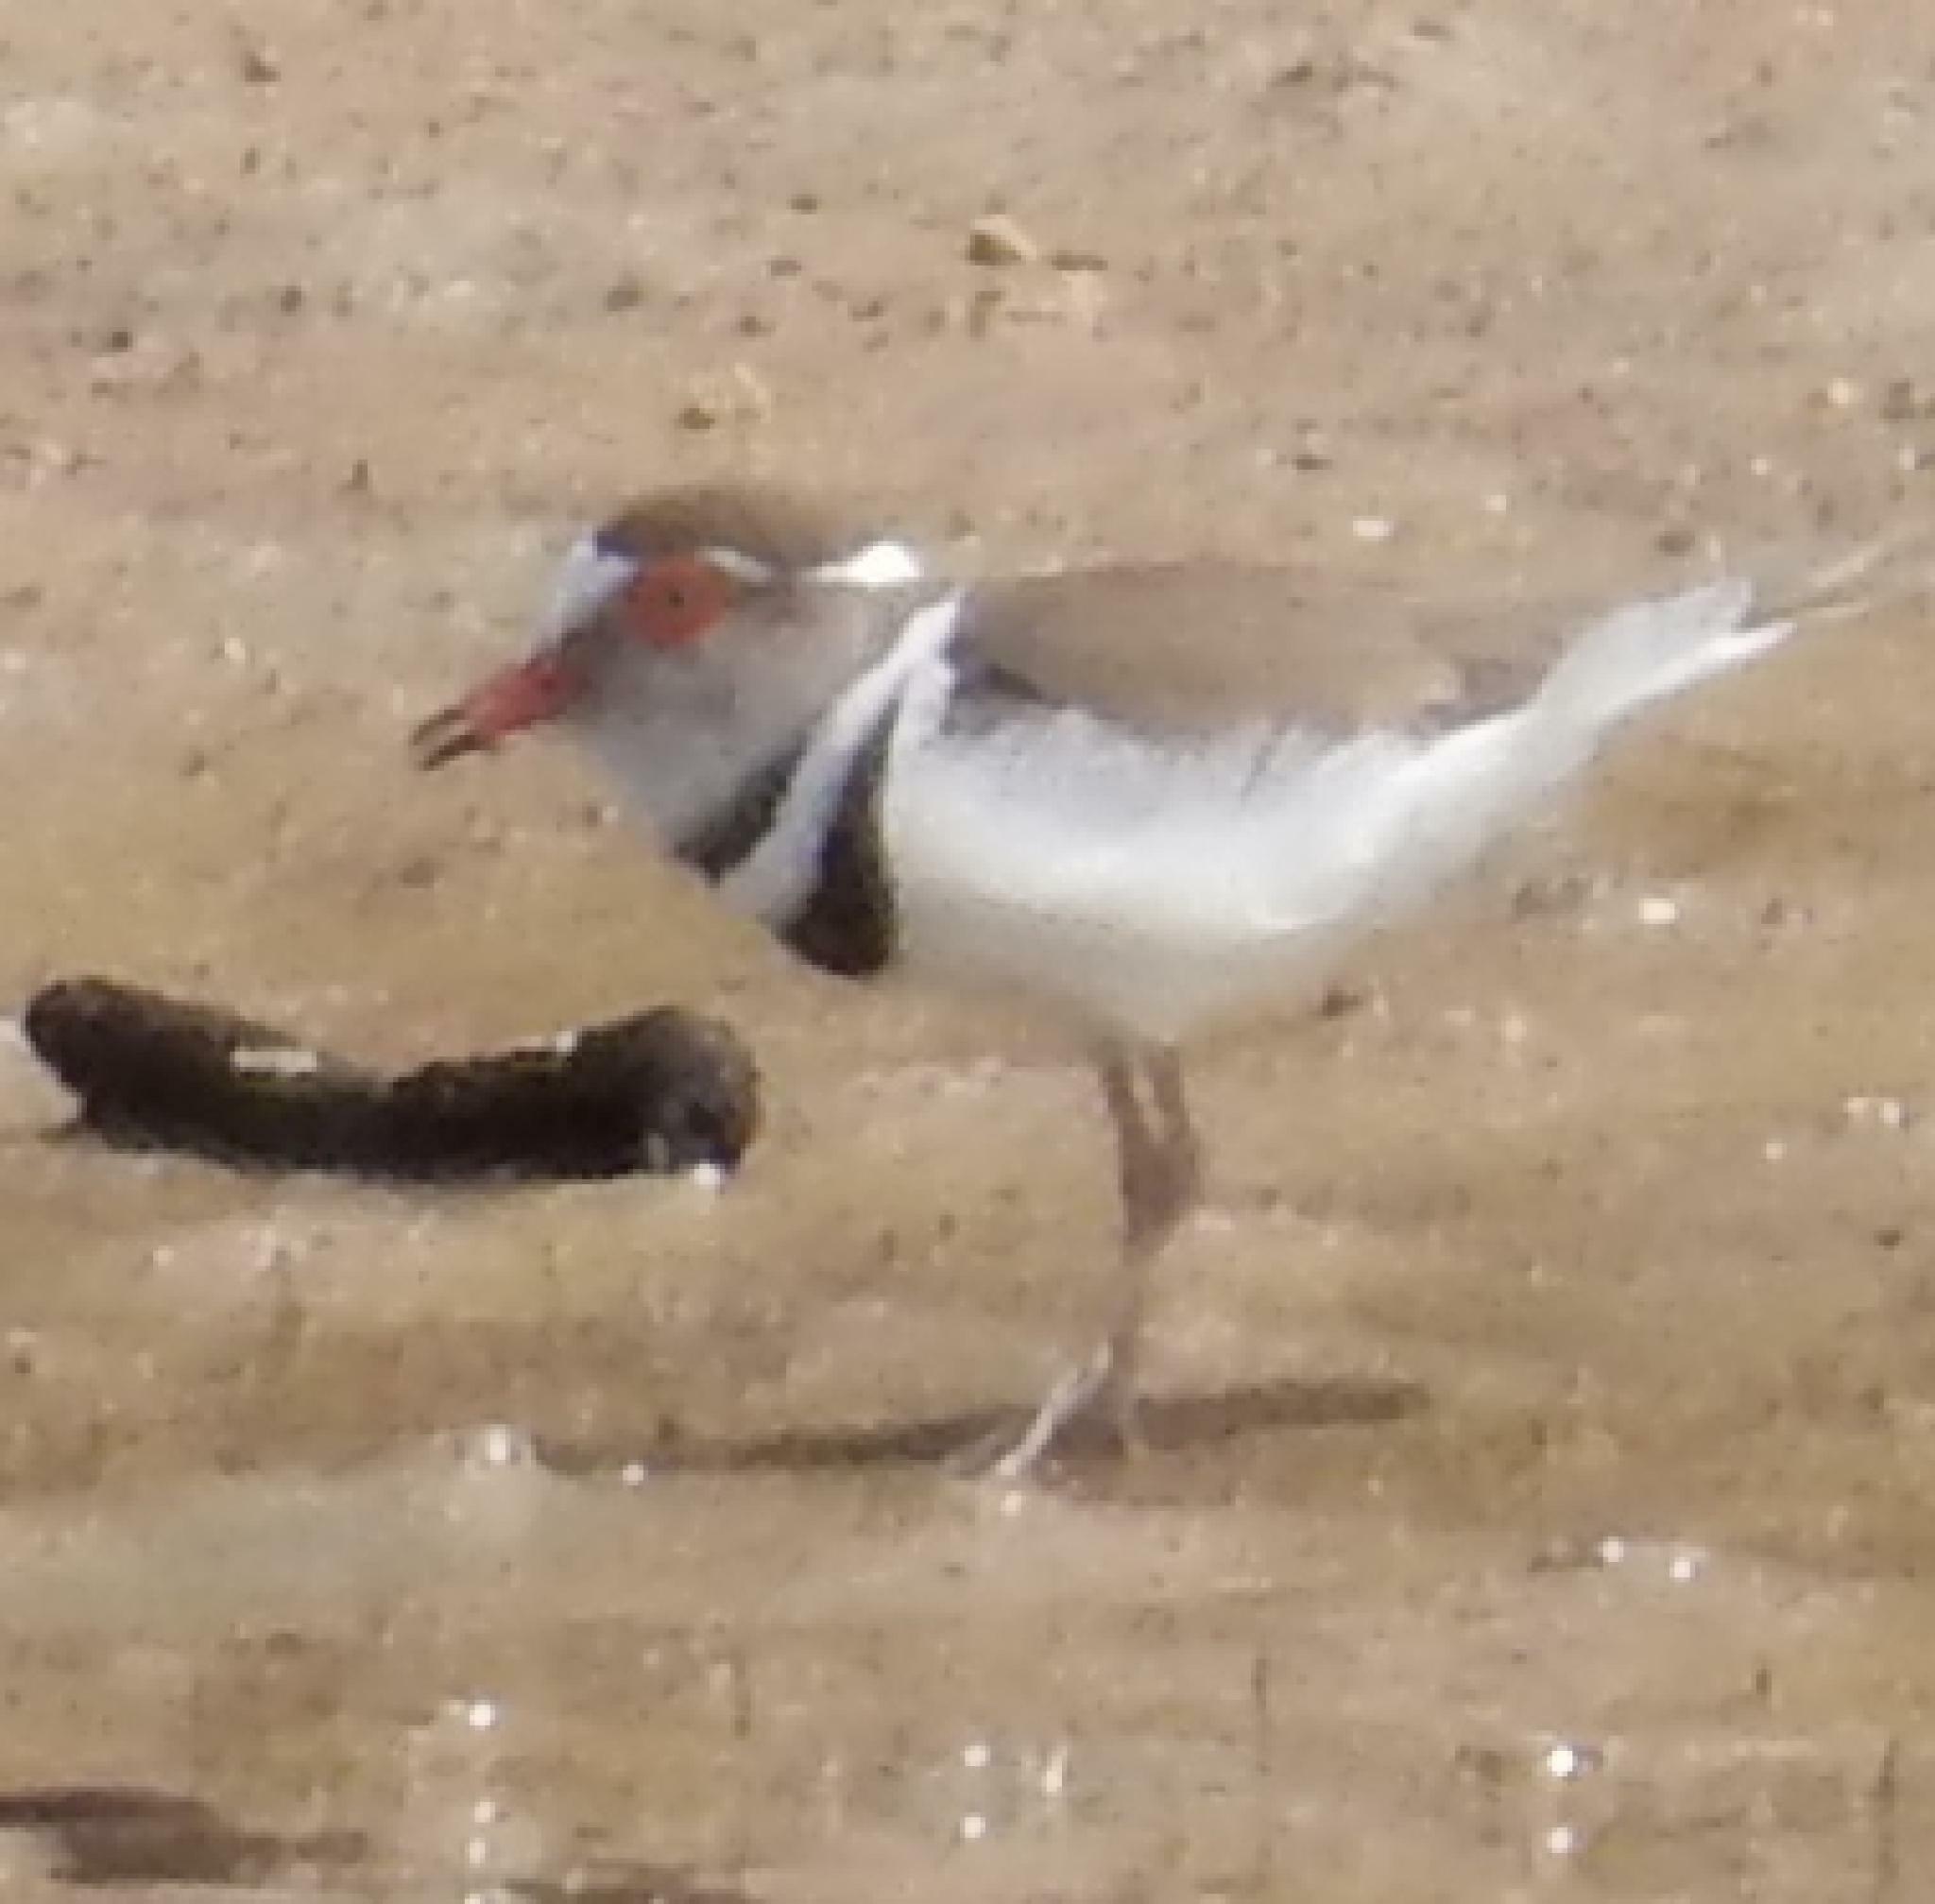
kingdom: Animalia
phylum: Chordata
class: Aves
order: Charadriiformes
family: Charadriidae
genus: Charadrius
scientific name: Charadrius tricollaris
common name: Three-banded plover
